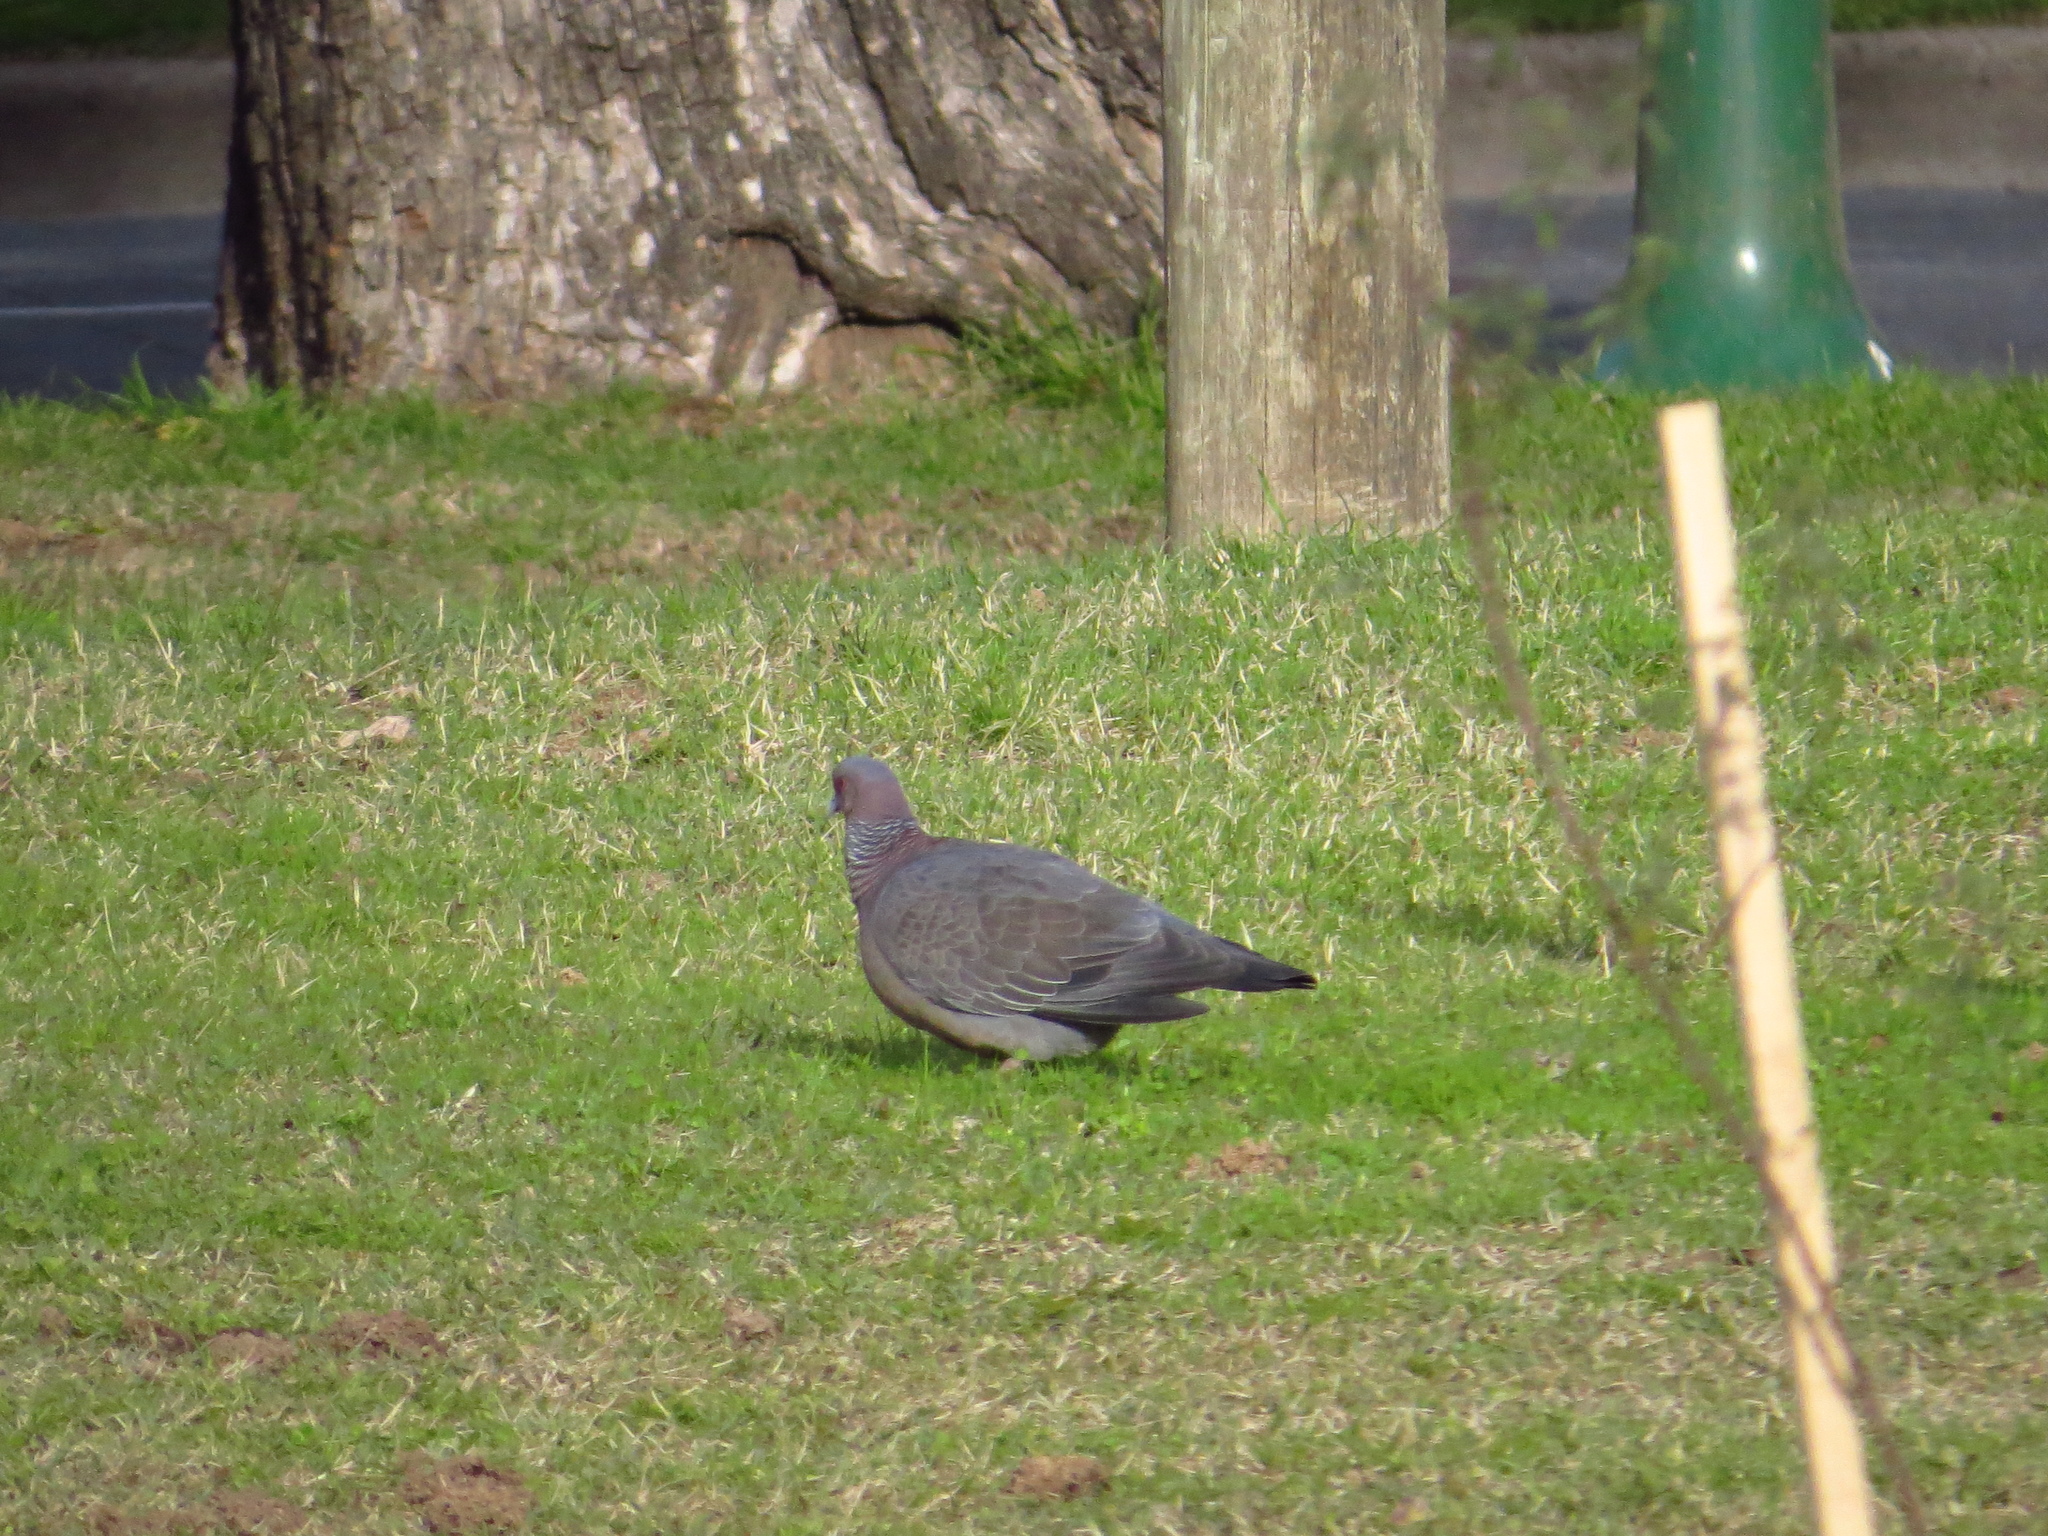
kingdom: Animalia
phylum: Chordata
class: Aves
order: Columbiformes
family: Columbidae
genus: Patagioenas
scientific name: Patagioenas picazuro
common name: Picazuro pigeon
